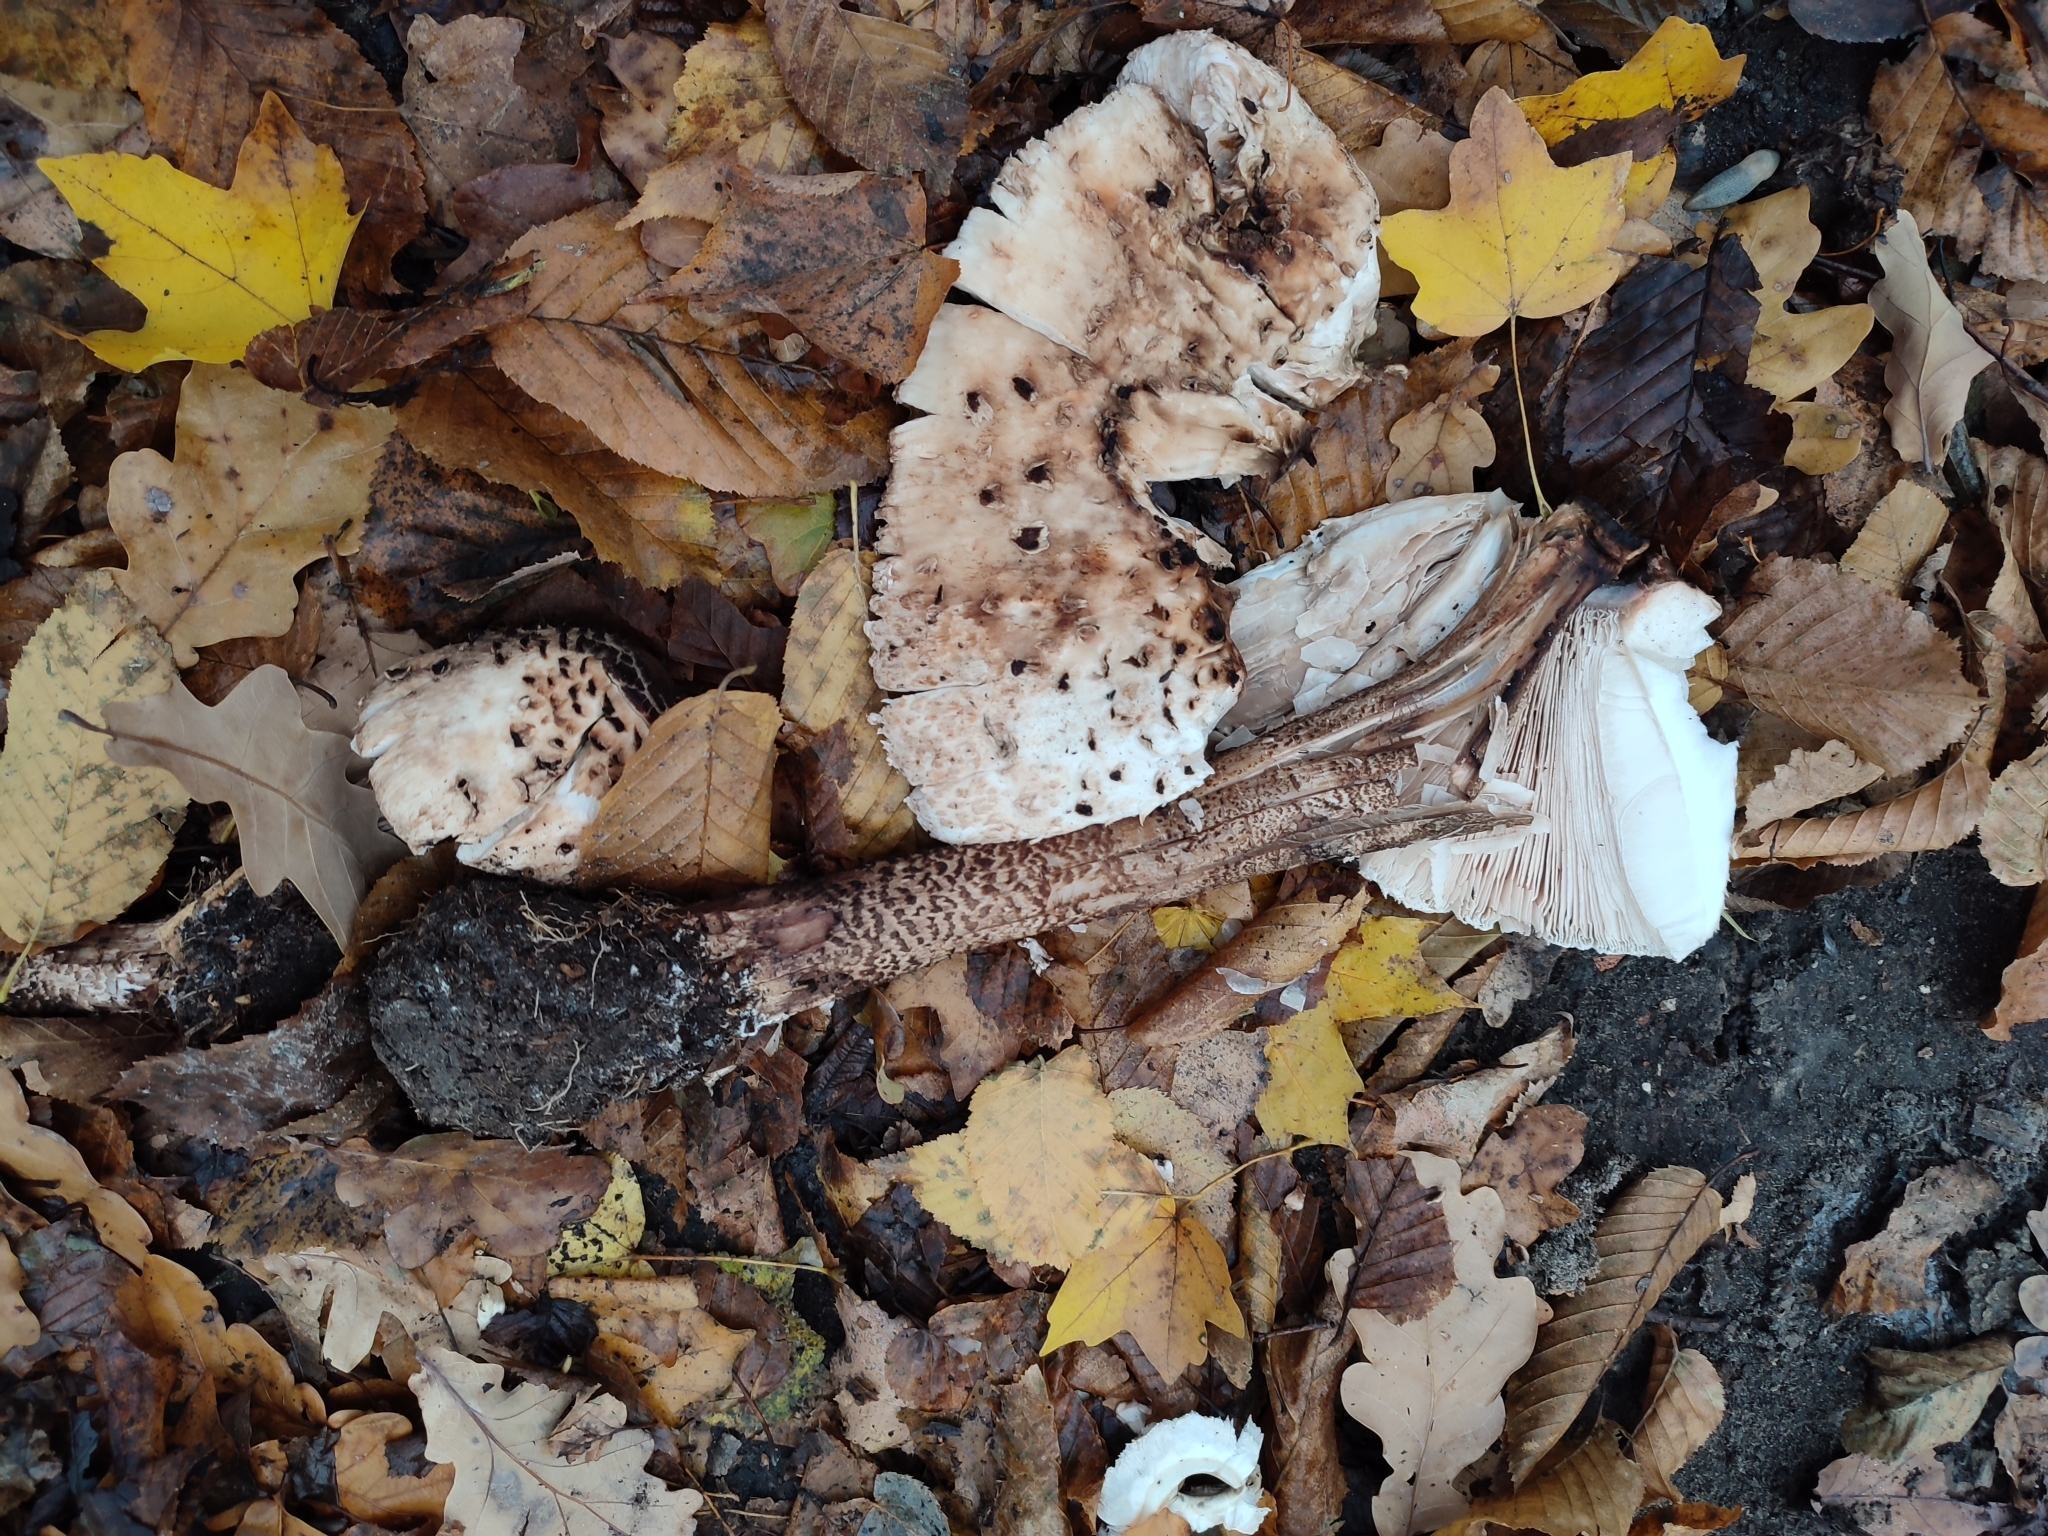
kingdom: Fungi
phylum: Basidiomycota
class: Agaricomycetes
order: Agaricales
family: Agaricaceae
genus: Macrolepiota
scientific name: Macrolepiota procera
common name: Parasol
